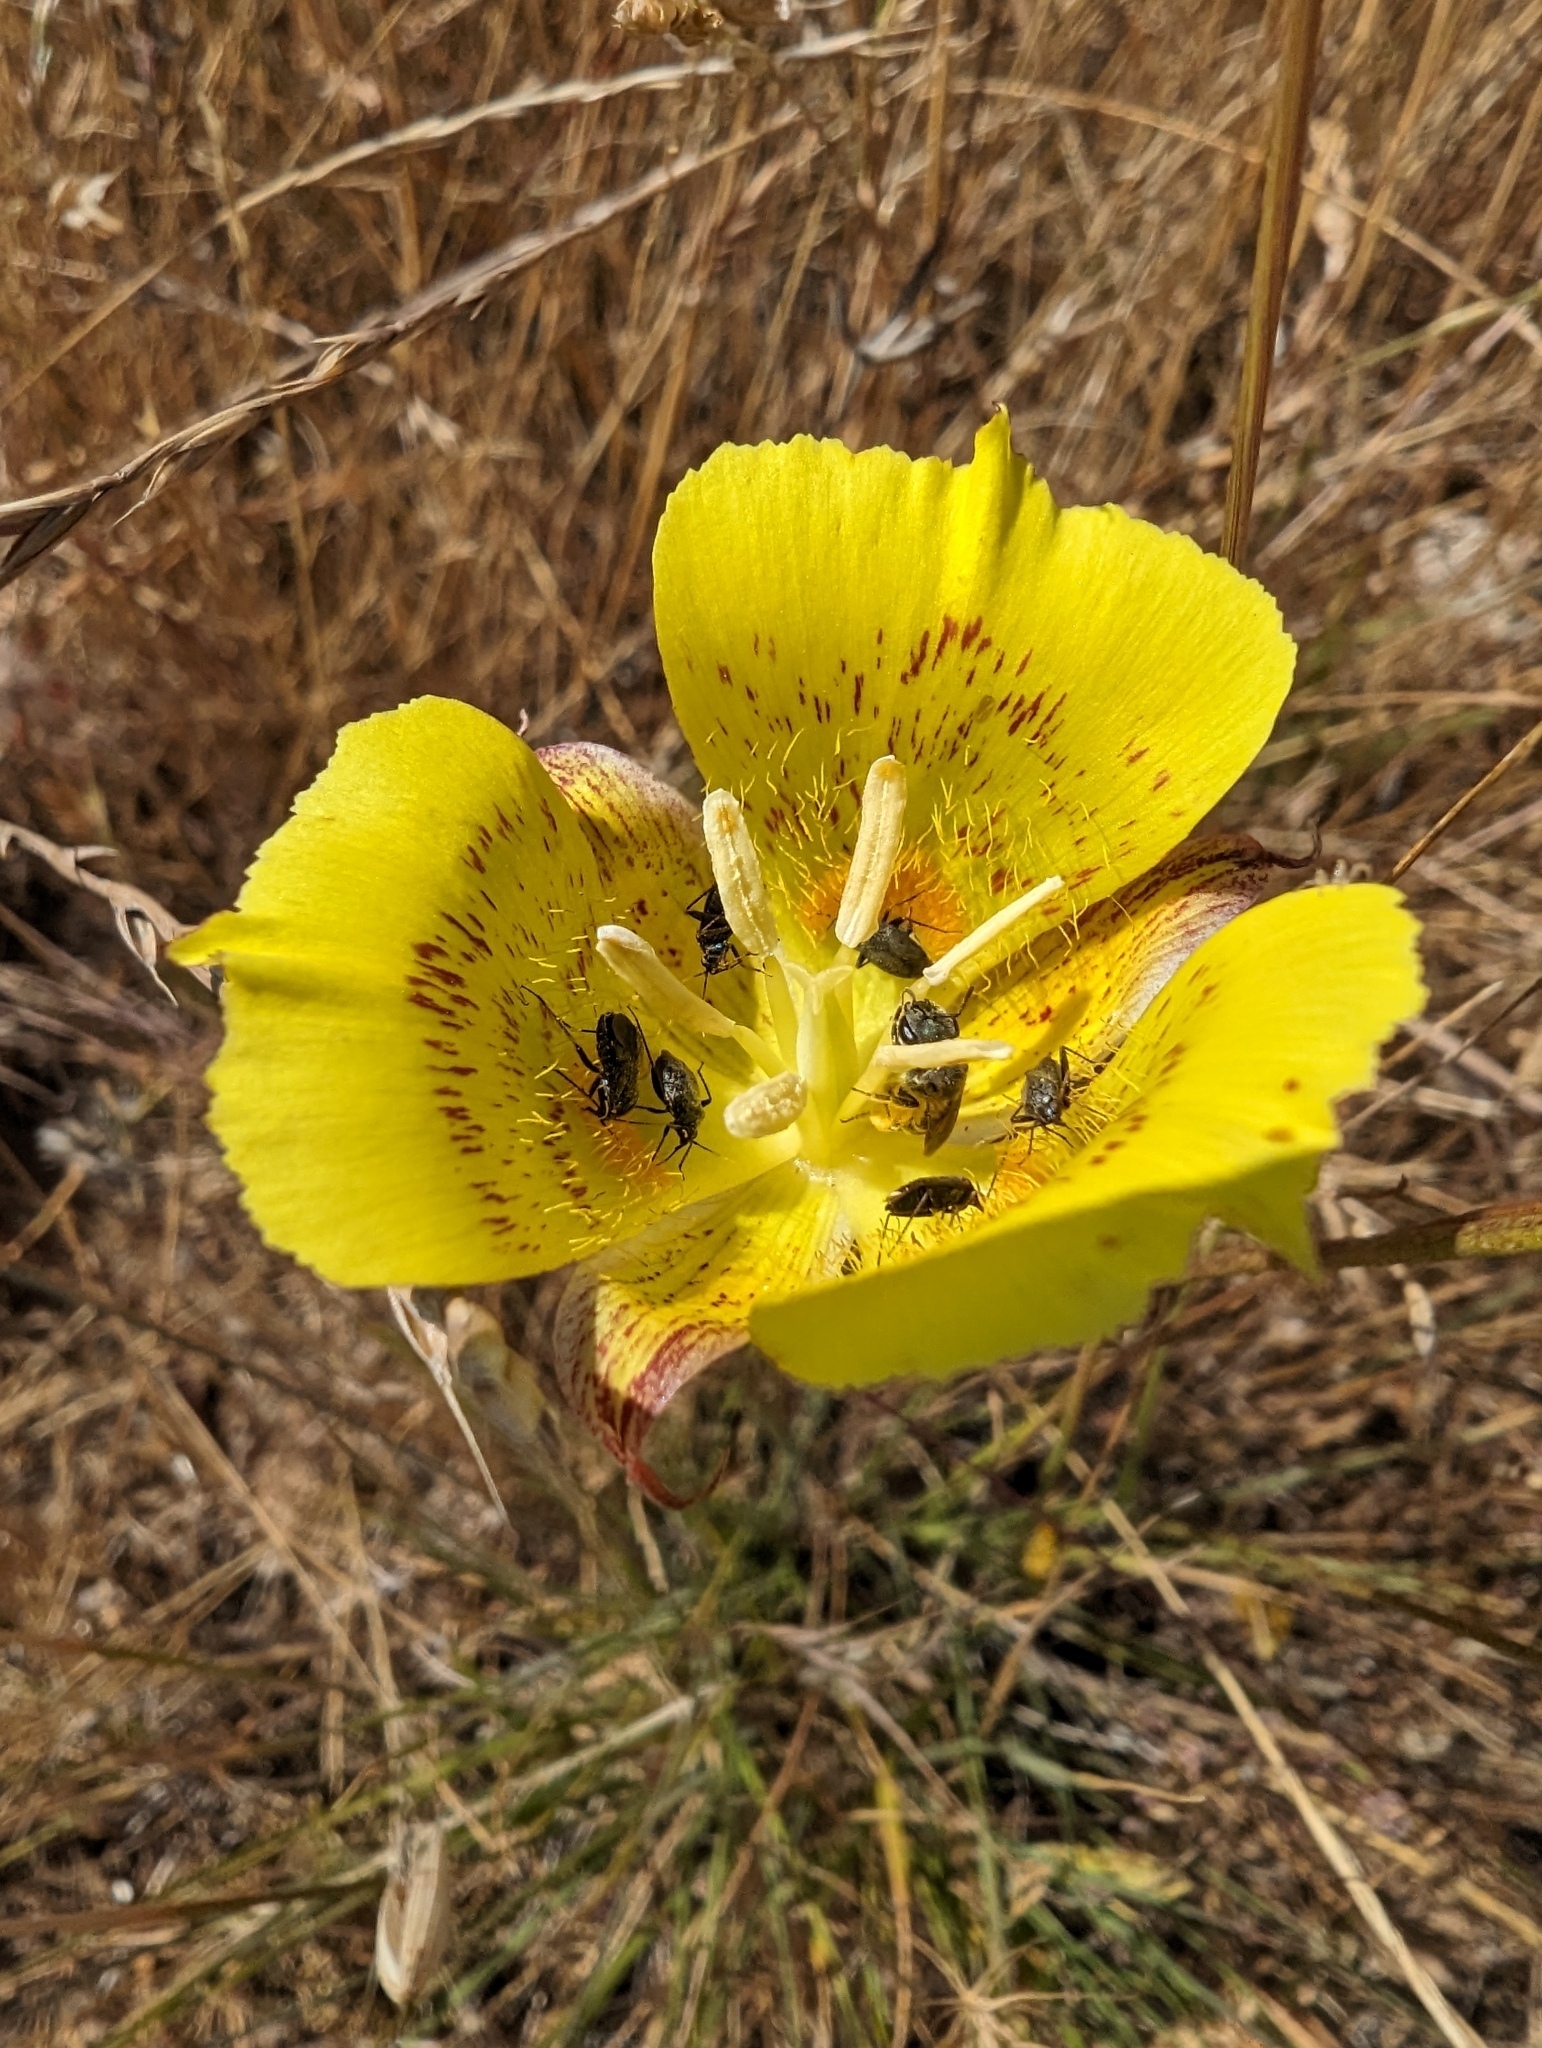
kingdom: Plantae
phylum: Tracheophyta
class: Liliopsida
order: Liliales
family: Liliaceae
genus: Calochortus
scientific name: Calochortus luteus
